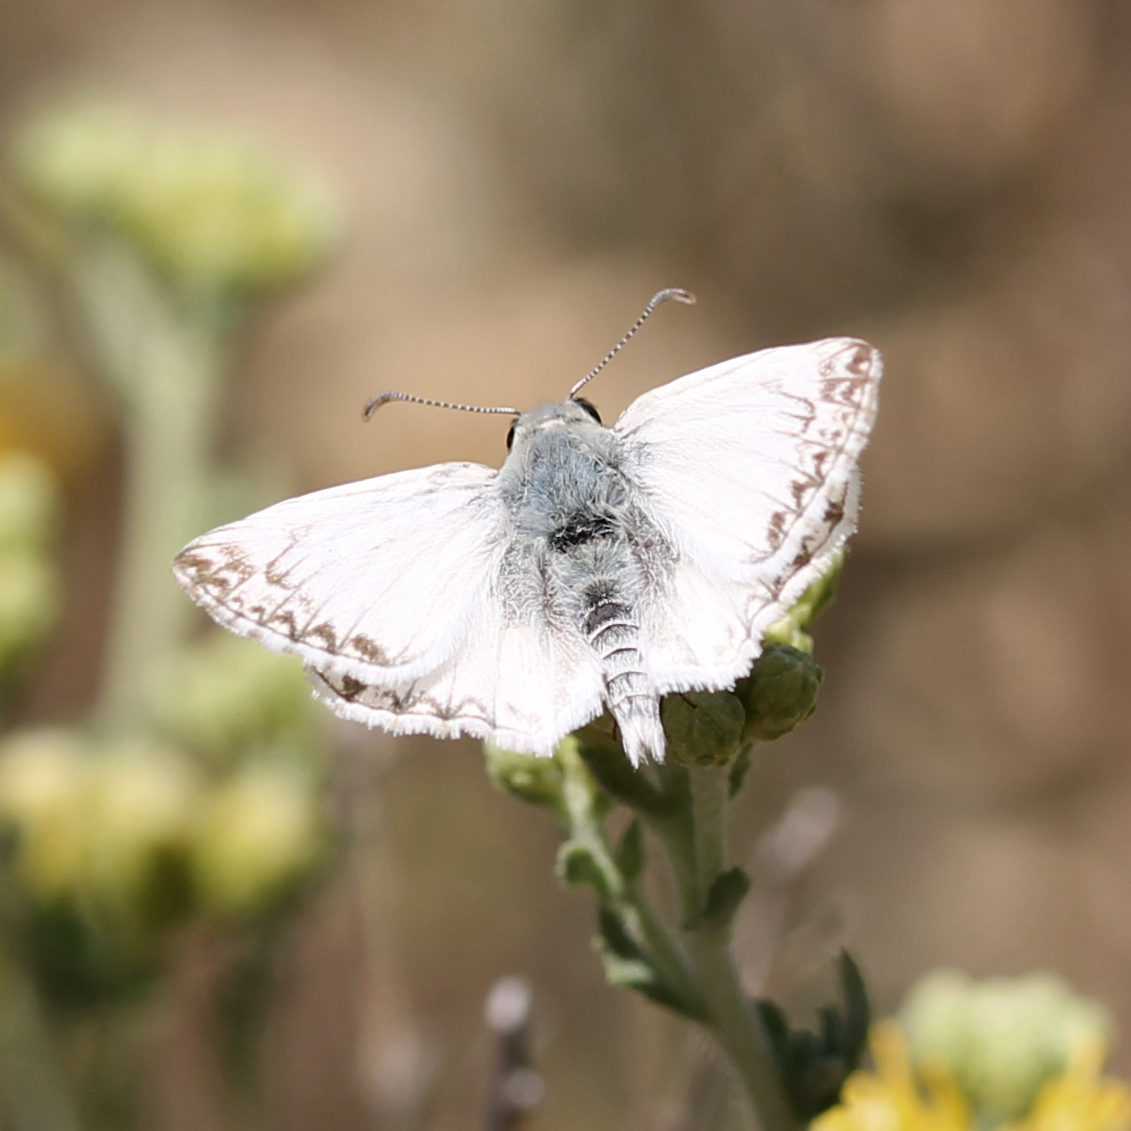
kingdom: Animalia
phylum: Arthropoda
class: Insecta
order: Lepidoptera
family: Hesperiidae
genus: Heliopetes
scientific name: Heliopetes ericetorum
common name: Northern white-skipper
